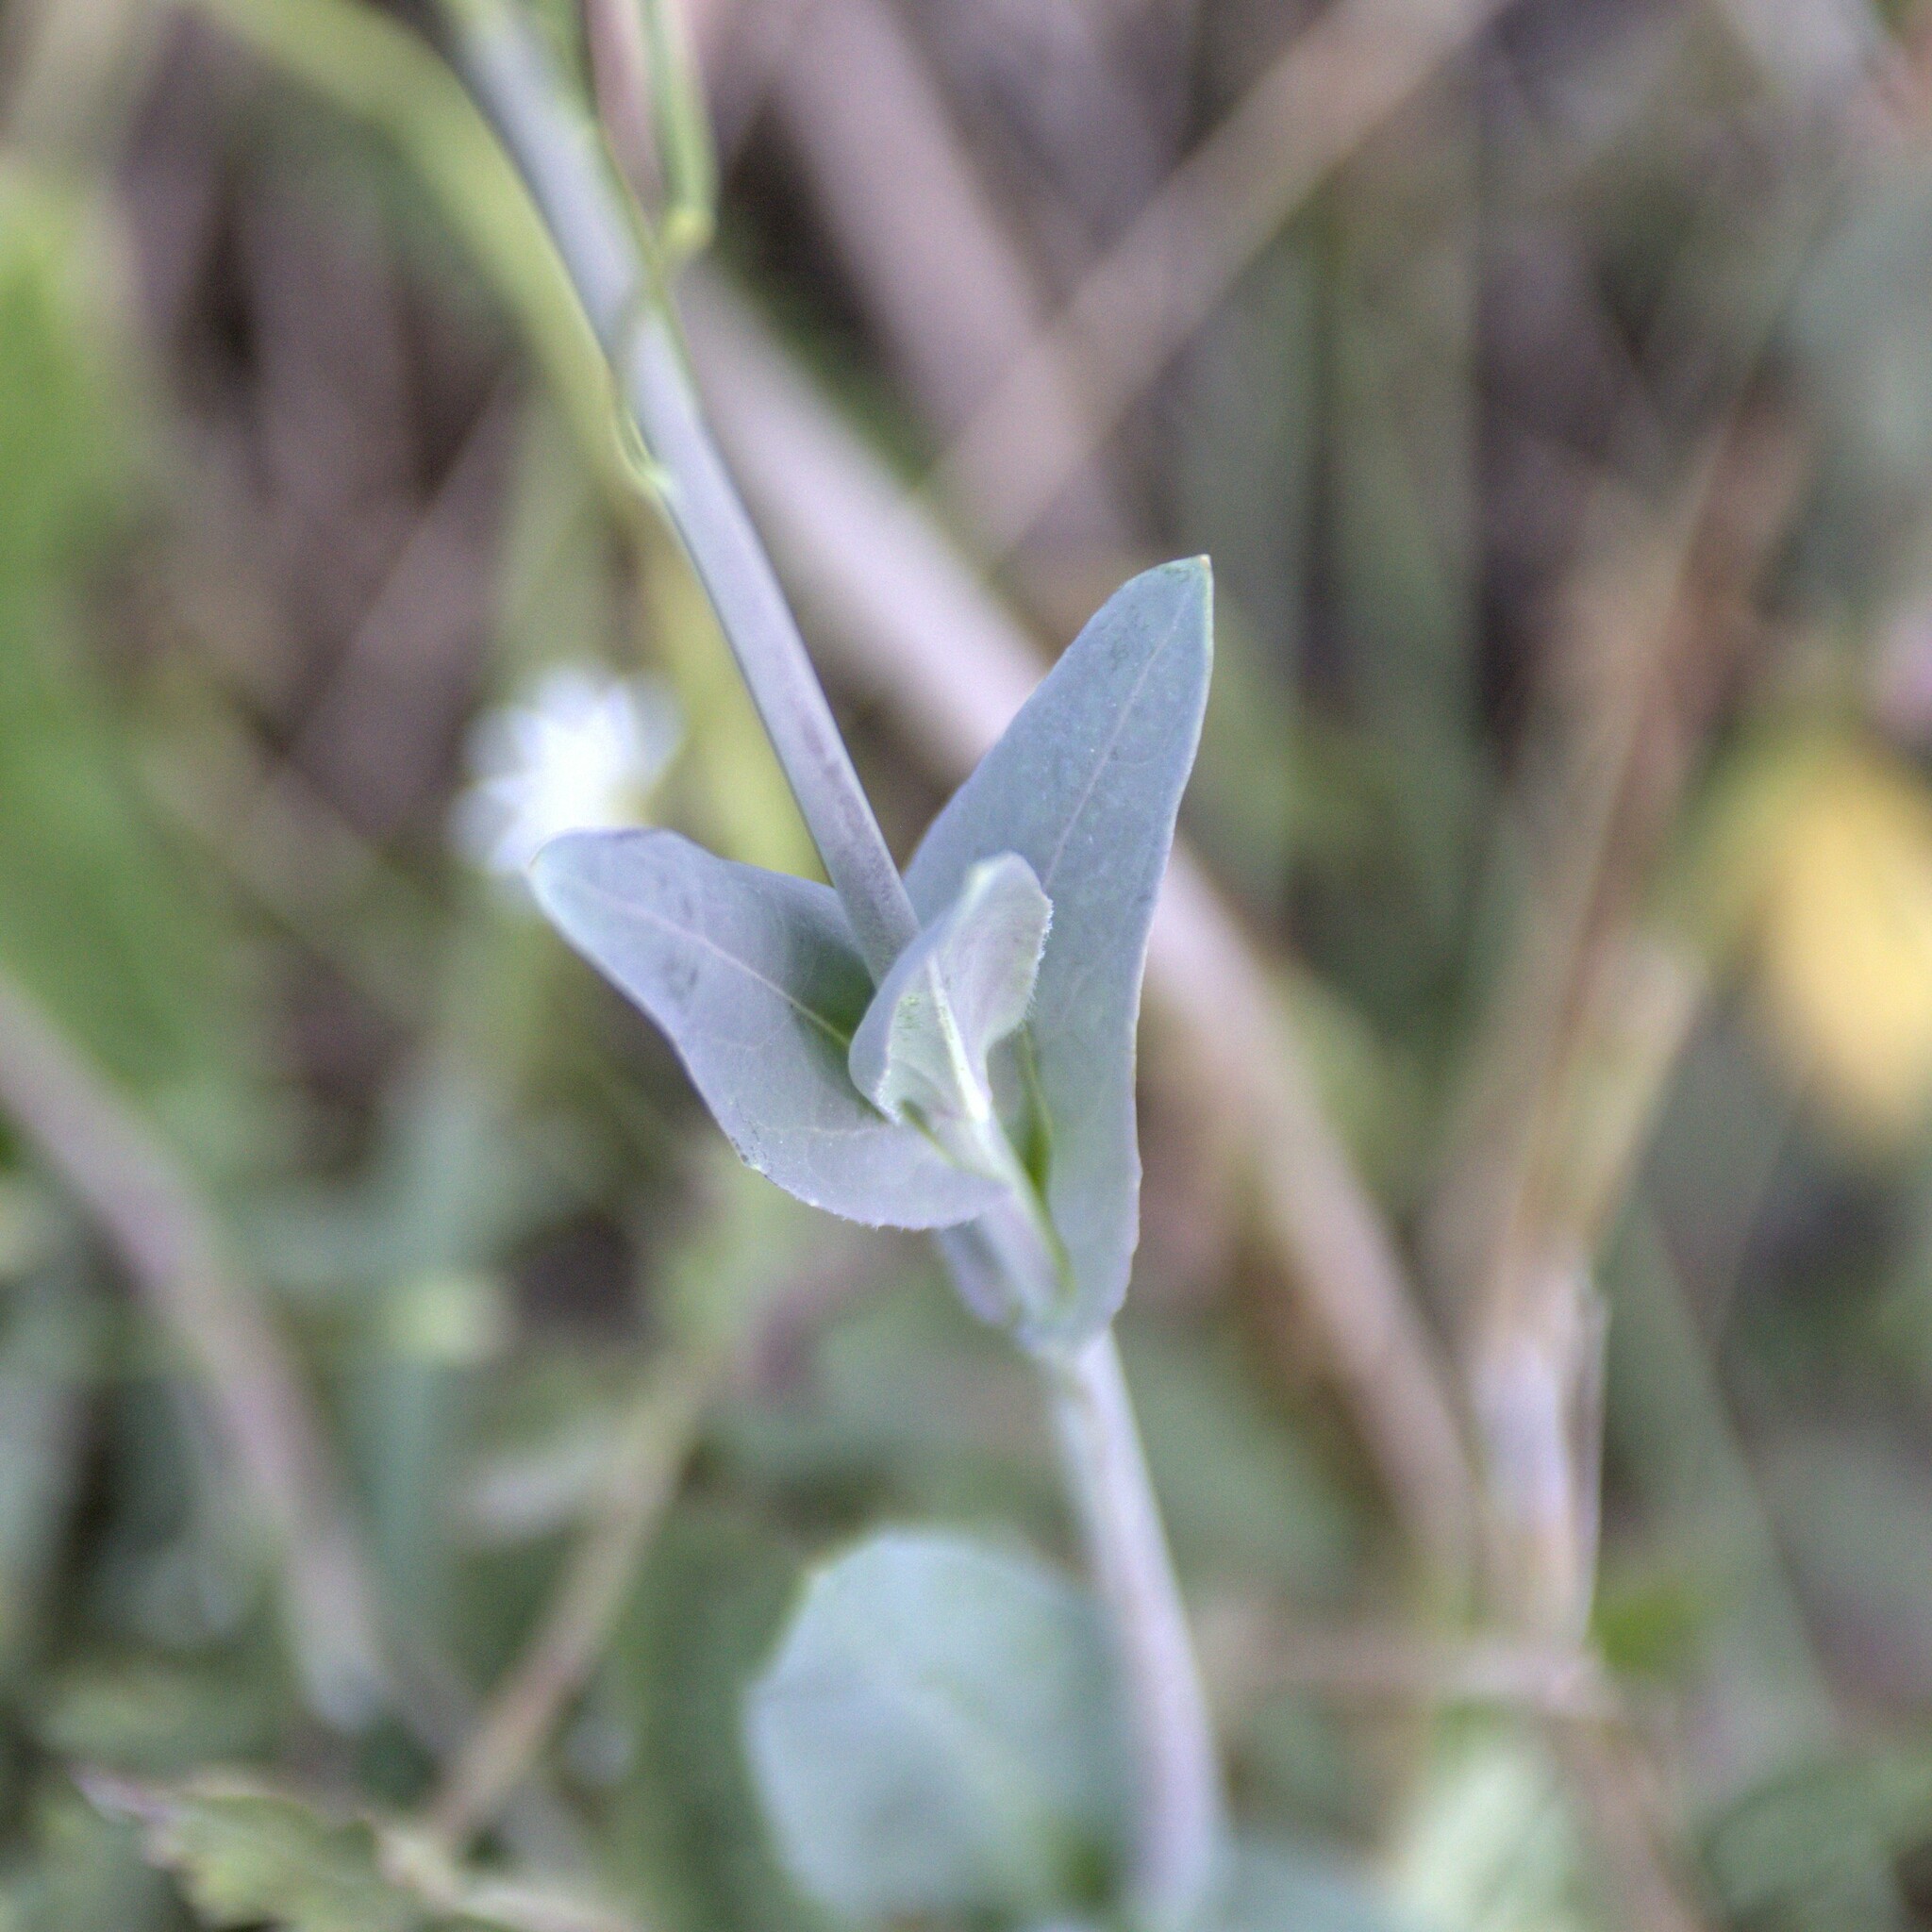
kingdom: Plantae
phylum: Tracheophyta
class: Magnoliopsida
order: Brassicales
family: Brassicaceae
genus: Turritis
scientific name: Turritis glabra
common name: Tower rockcress
